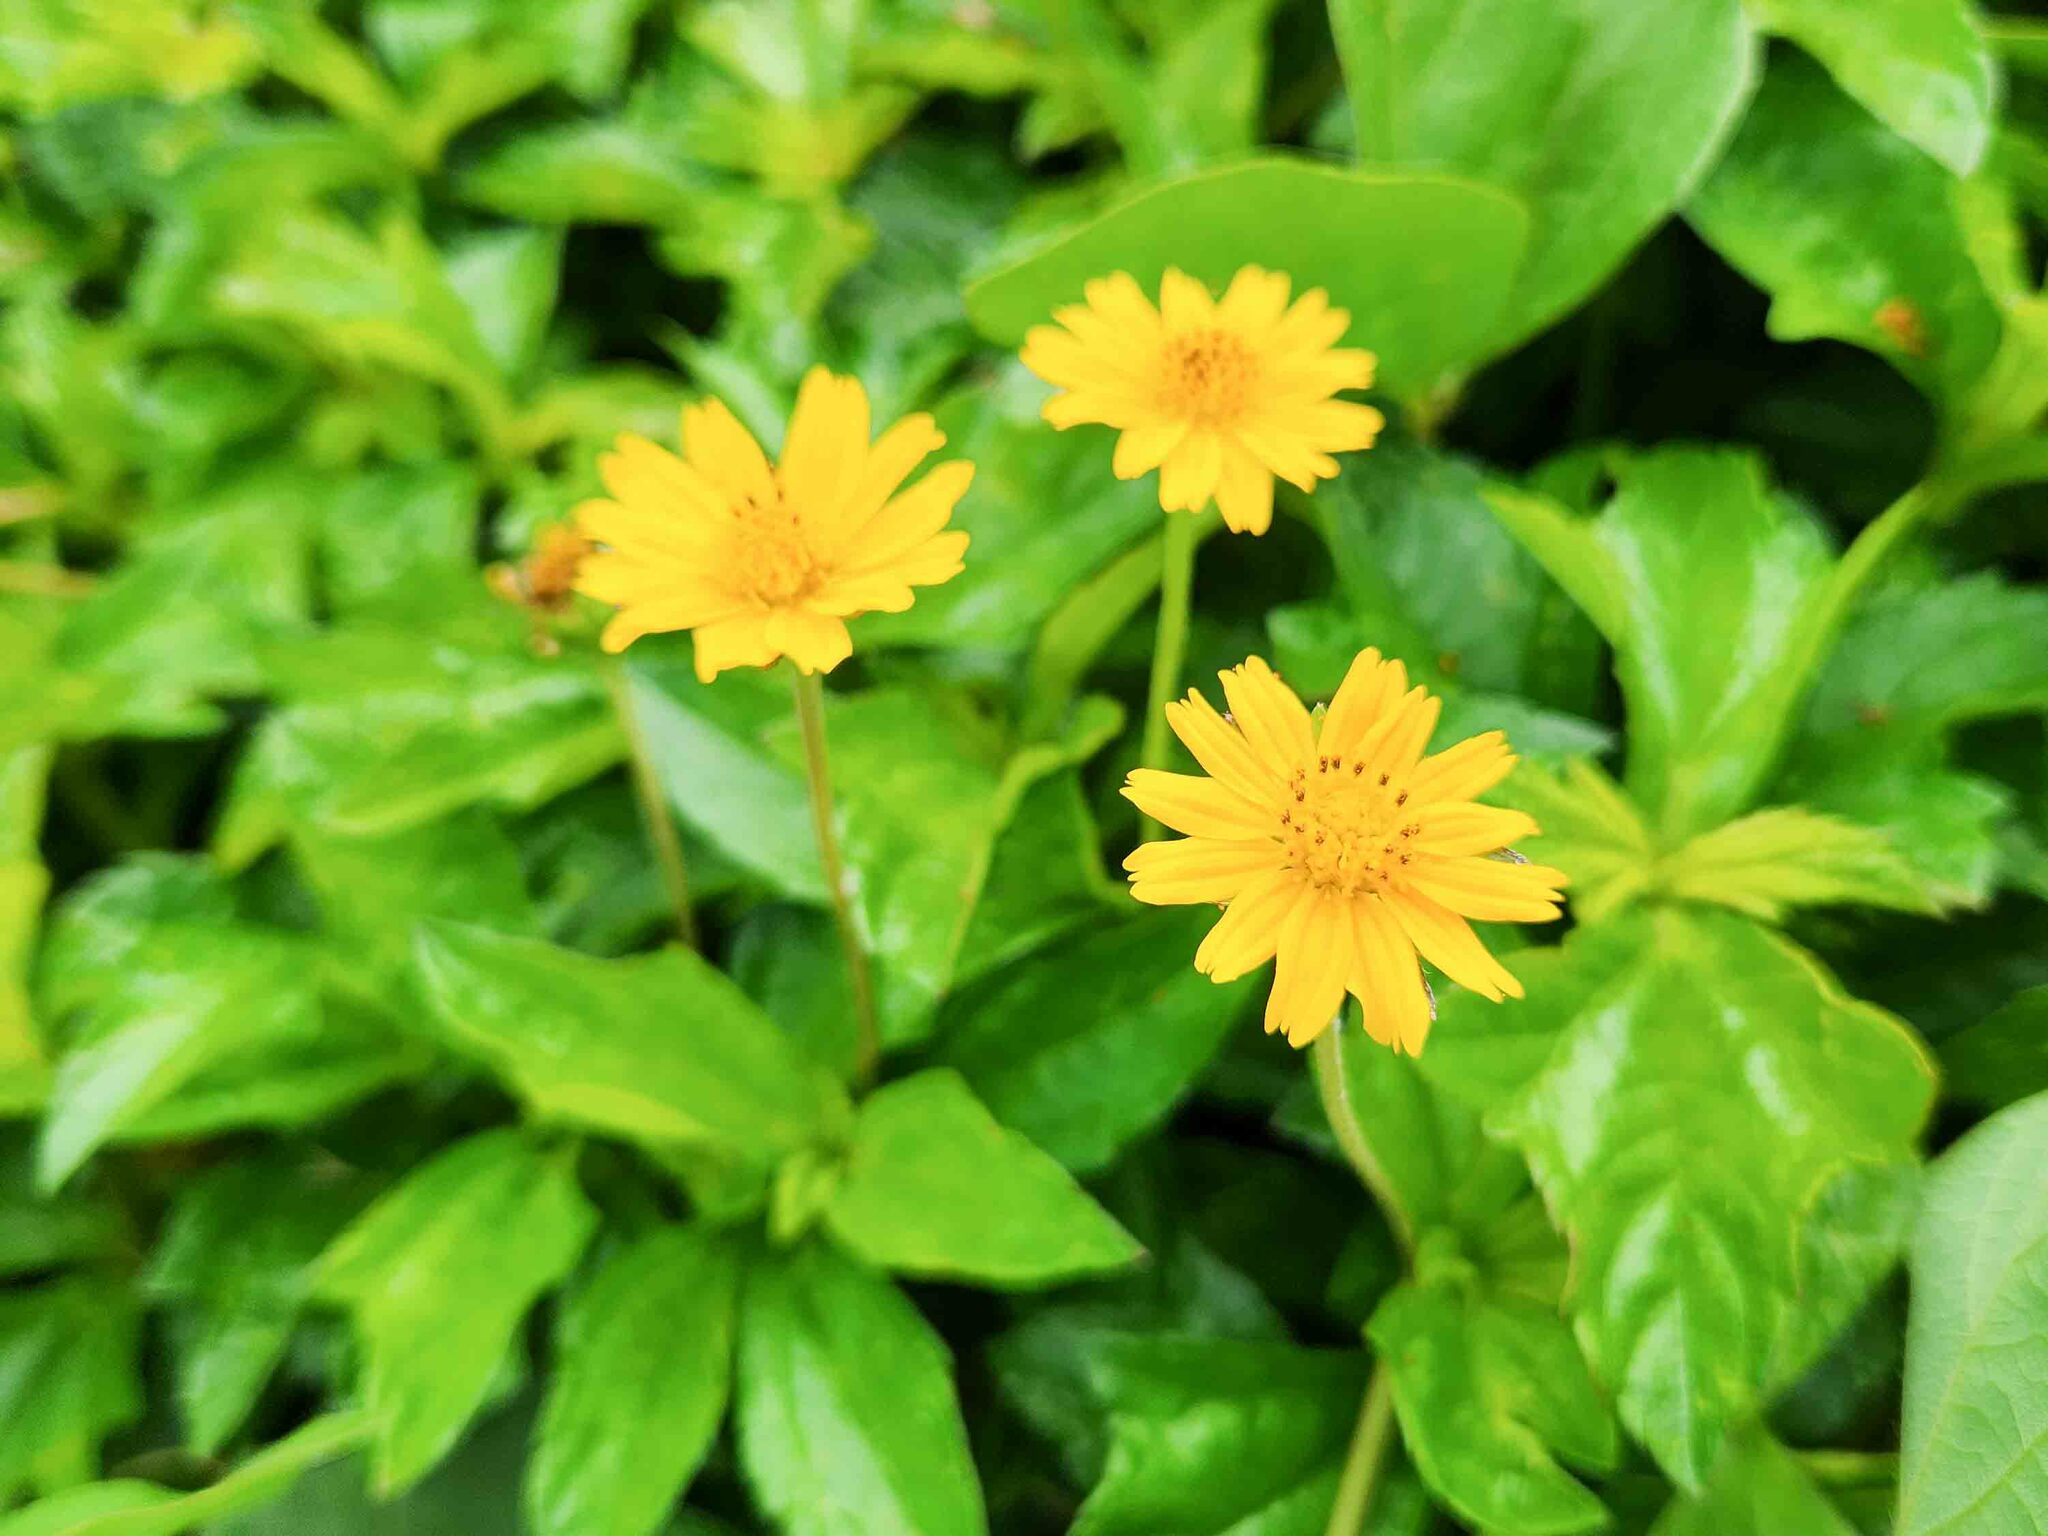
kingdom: Plantae
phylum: Tracheophyta
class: Magnoliopsida
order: Asterales
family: Asteraceae
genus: Sphagneticola
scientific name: Sphagneticola trilobata
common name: Bay biscayne creeping-oxeye
